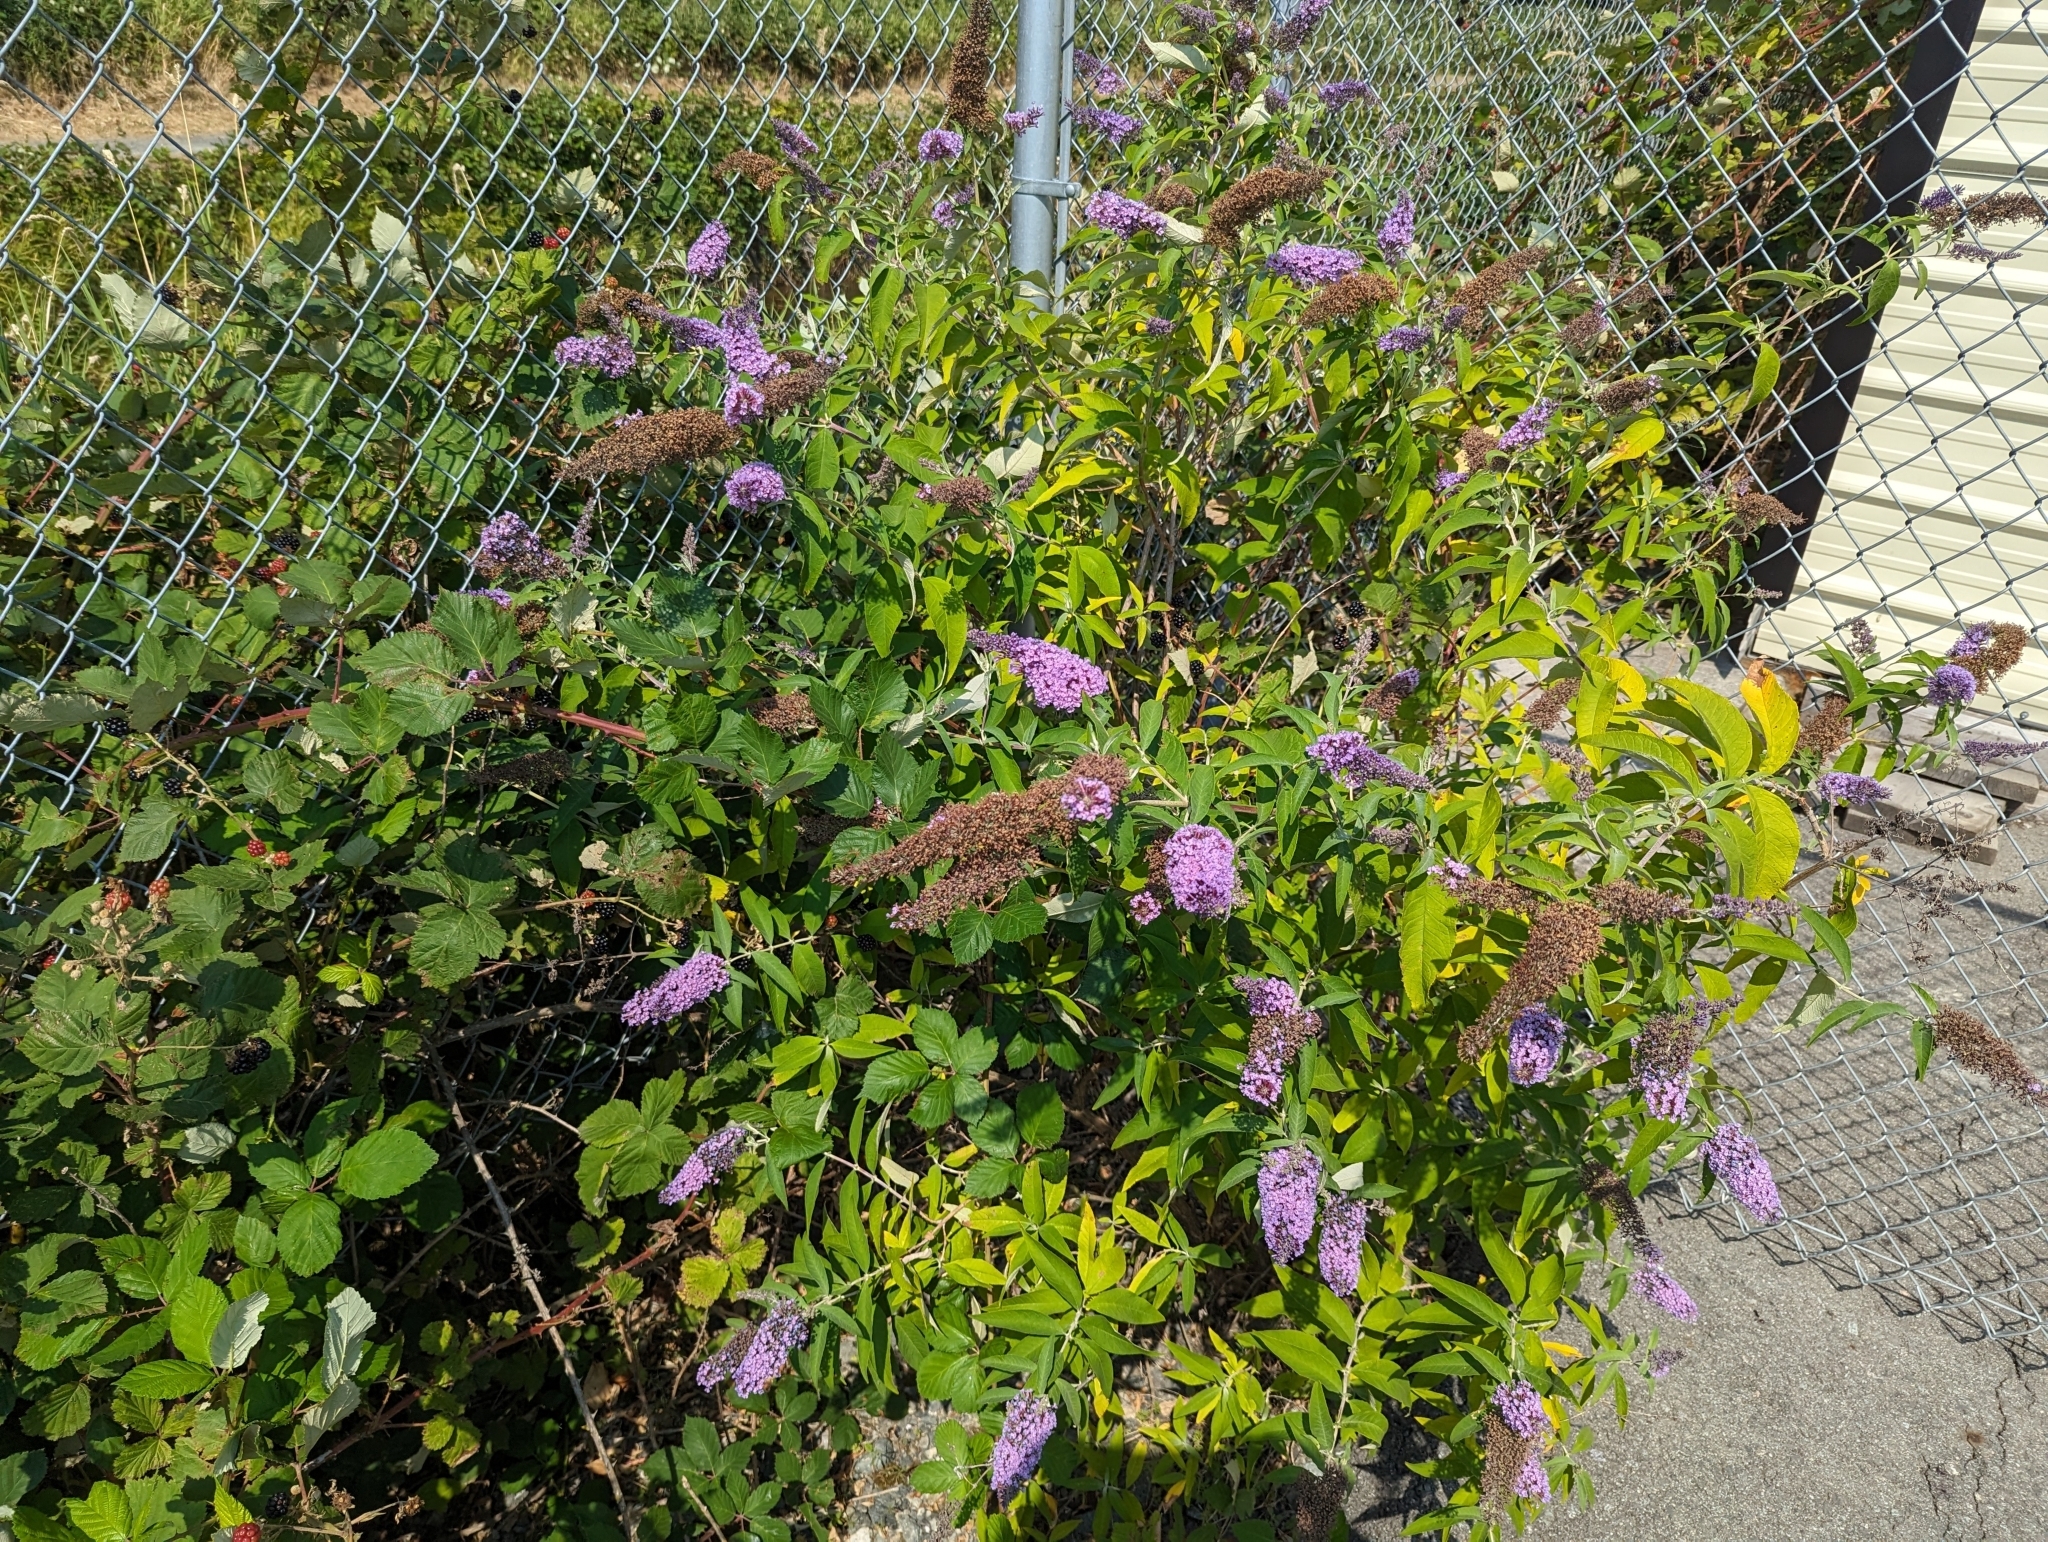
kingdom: Plantae
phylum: Tracheophyta
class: Magnoliopsida
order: Lamiales
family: Scrophulariaceae
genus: Buddleja
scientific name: Buddleja davidii
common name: Butterfly-bush
